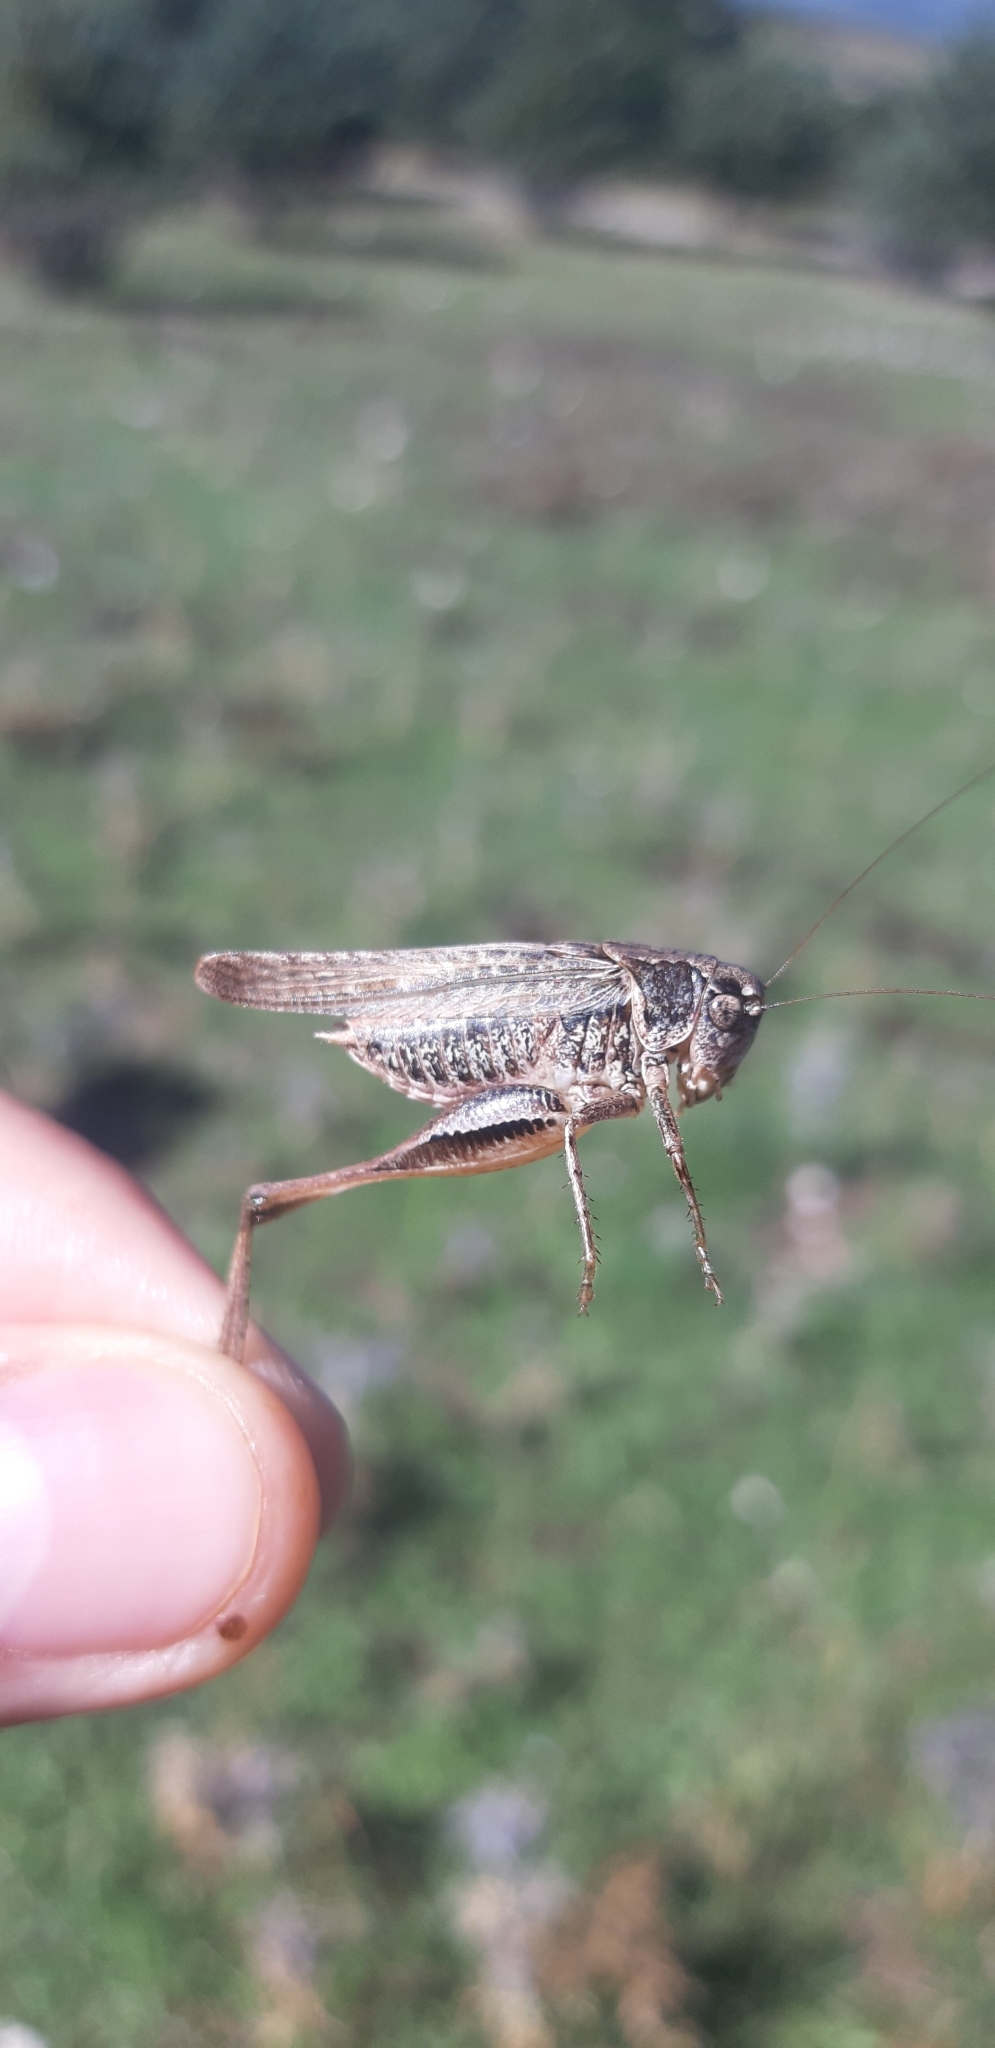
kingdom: Animalia
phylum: Arthropoda
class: Insecta
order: Orthoptera
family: Tettigoniidae
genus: Platycleis
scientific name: Platycleis grisea
